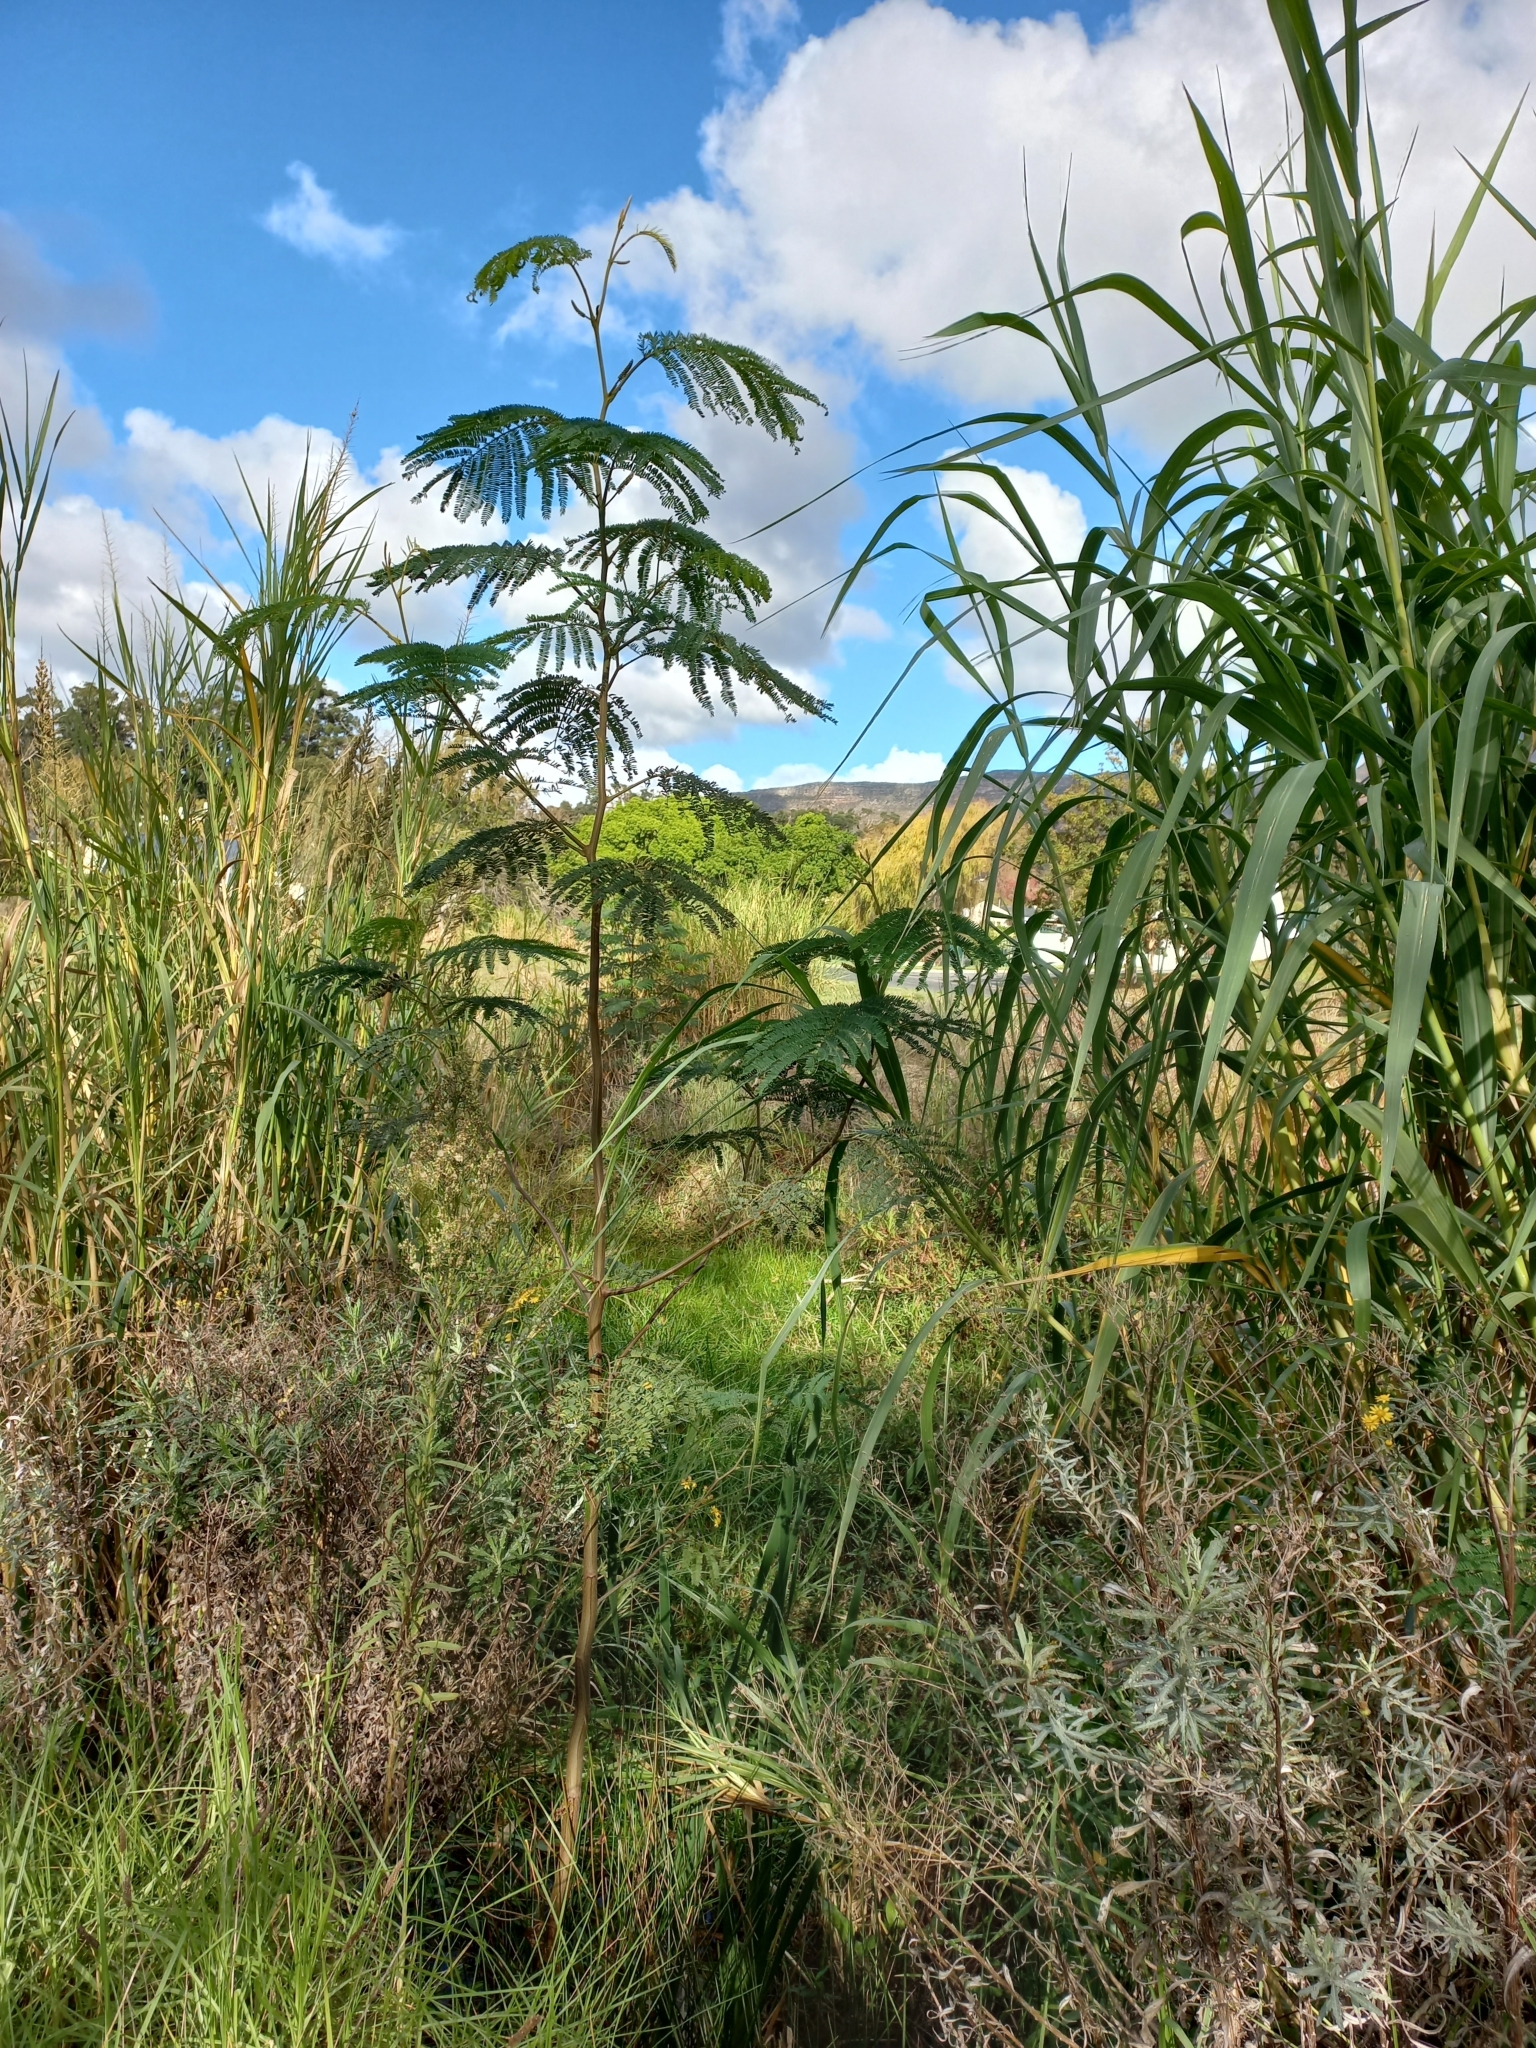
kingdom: Plantae
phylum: Tracheophyta
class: Magnoliopsida
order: Fabales
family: Fabaceae
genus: Paraserianthes
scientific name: Paraserianthes lophantha
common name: Plume albizia
